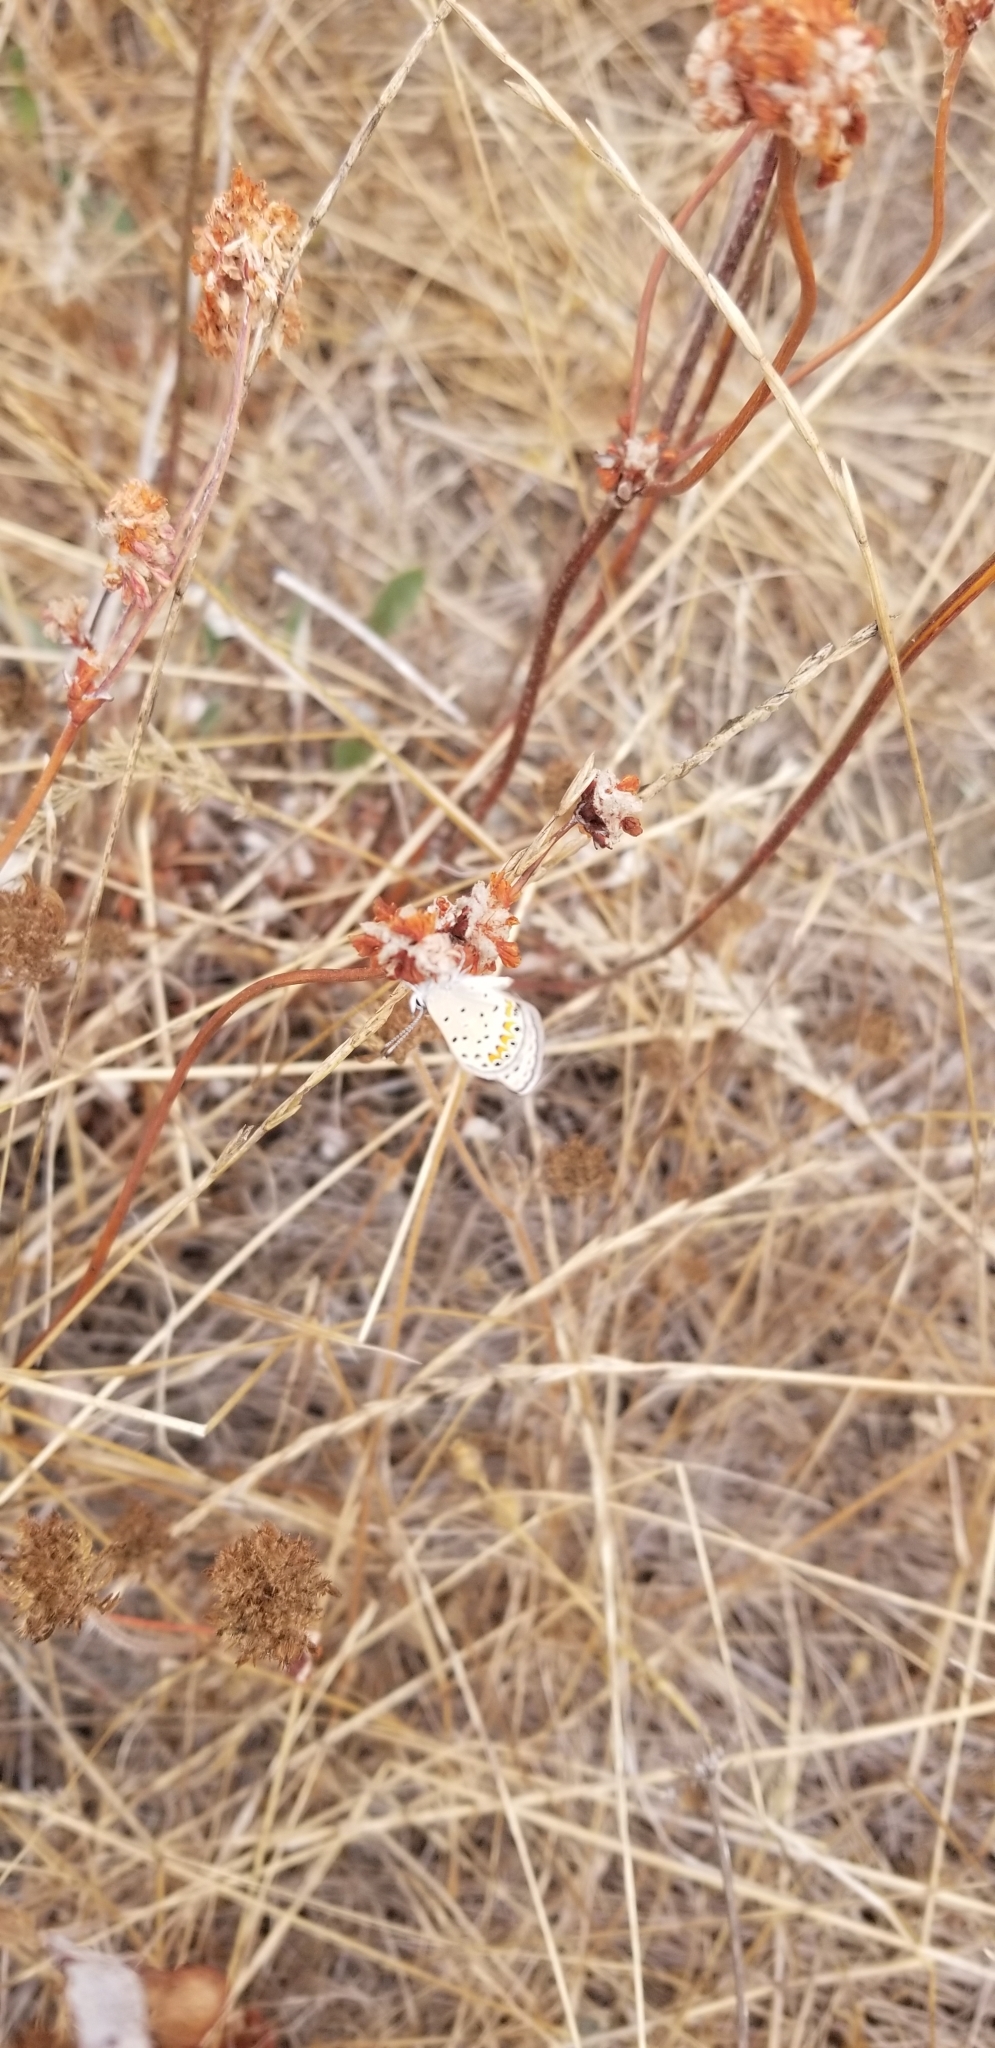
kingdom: Animalia
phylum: Arthropoda
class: Insecta
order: Lepidoptera
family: Lycaenidae
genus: Icaricia
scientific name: Icaricia acmon
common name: Acmon blue
